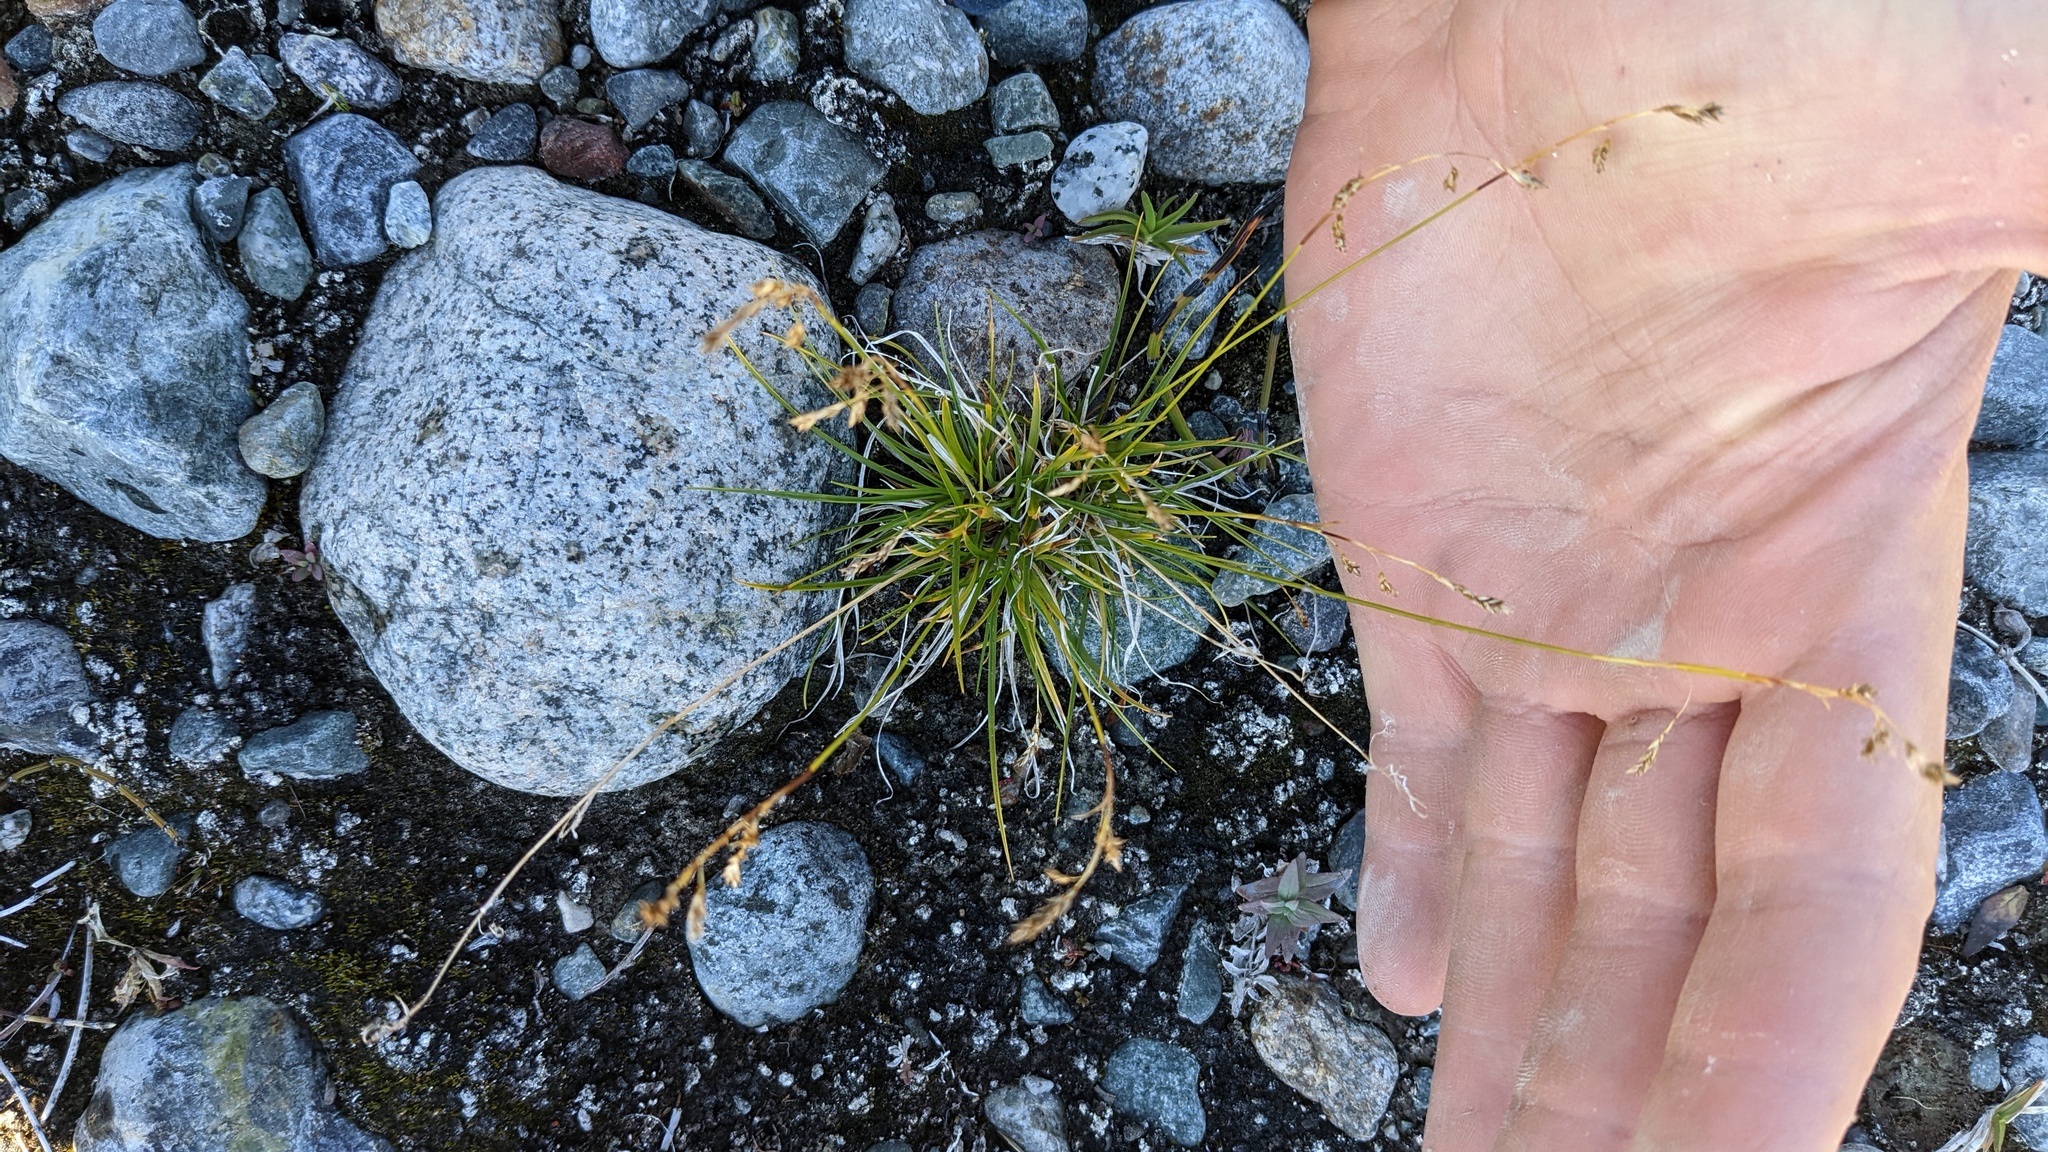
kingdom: Plantae
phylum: Tracheophyta
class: Liliopsida
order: Poales
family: Cyperaceae
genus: Carex
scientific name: Carex capillaris
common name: Hair sedge
